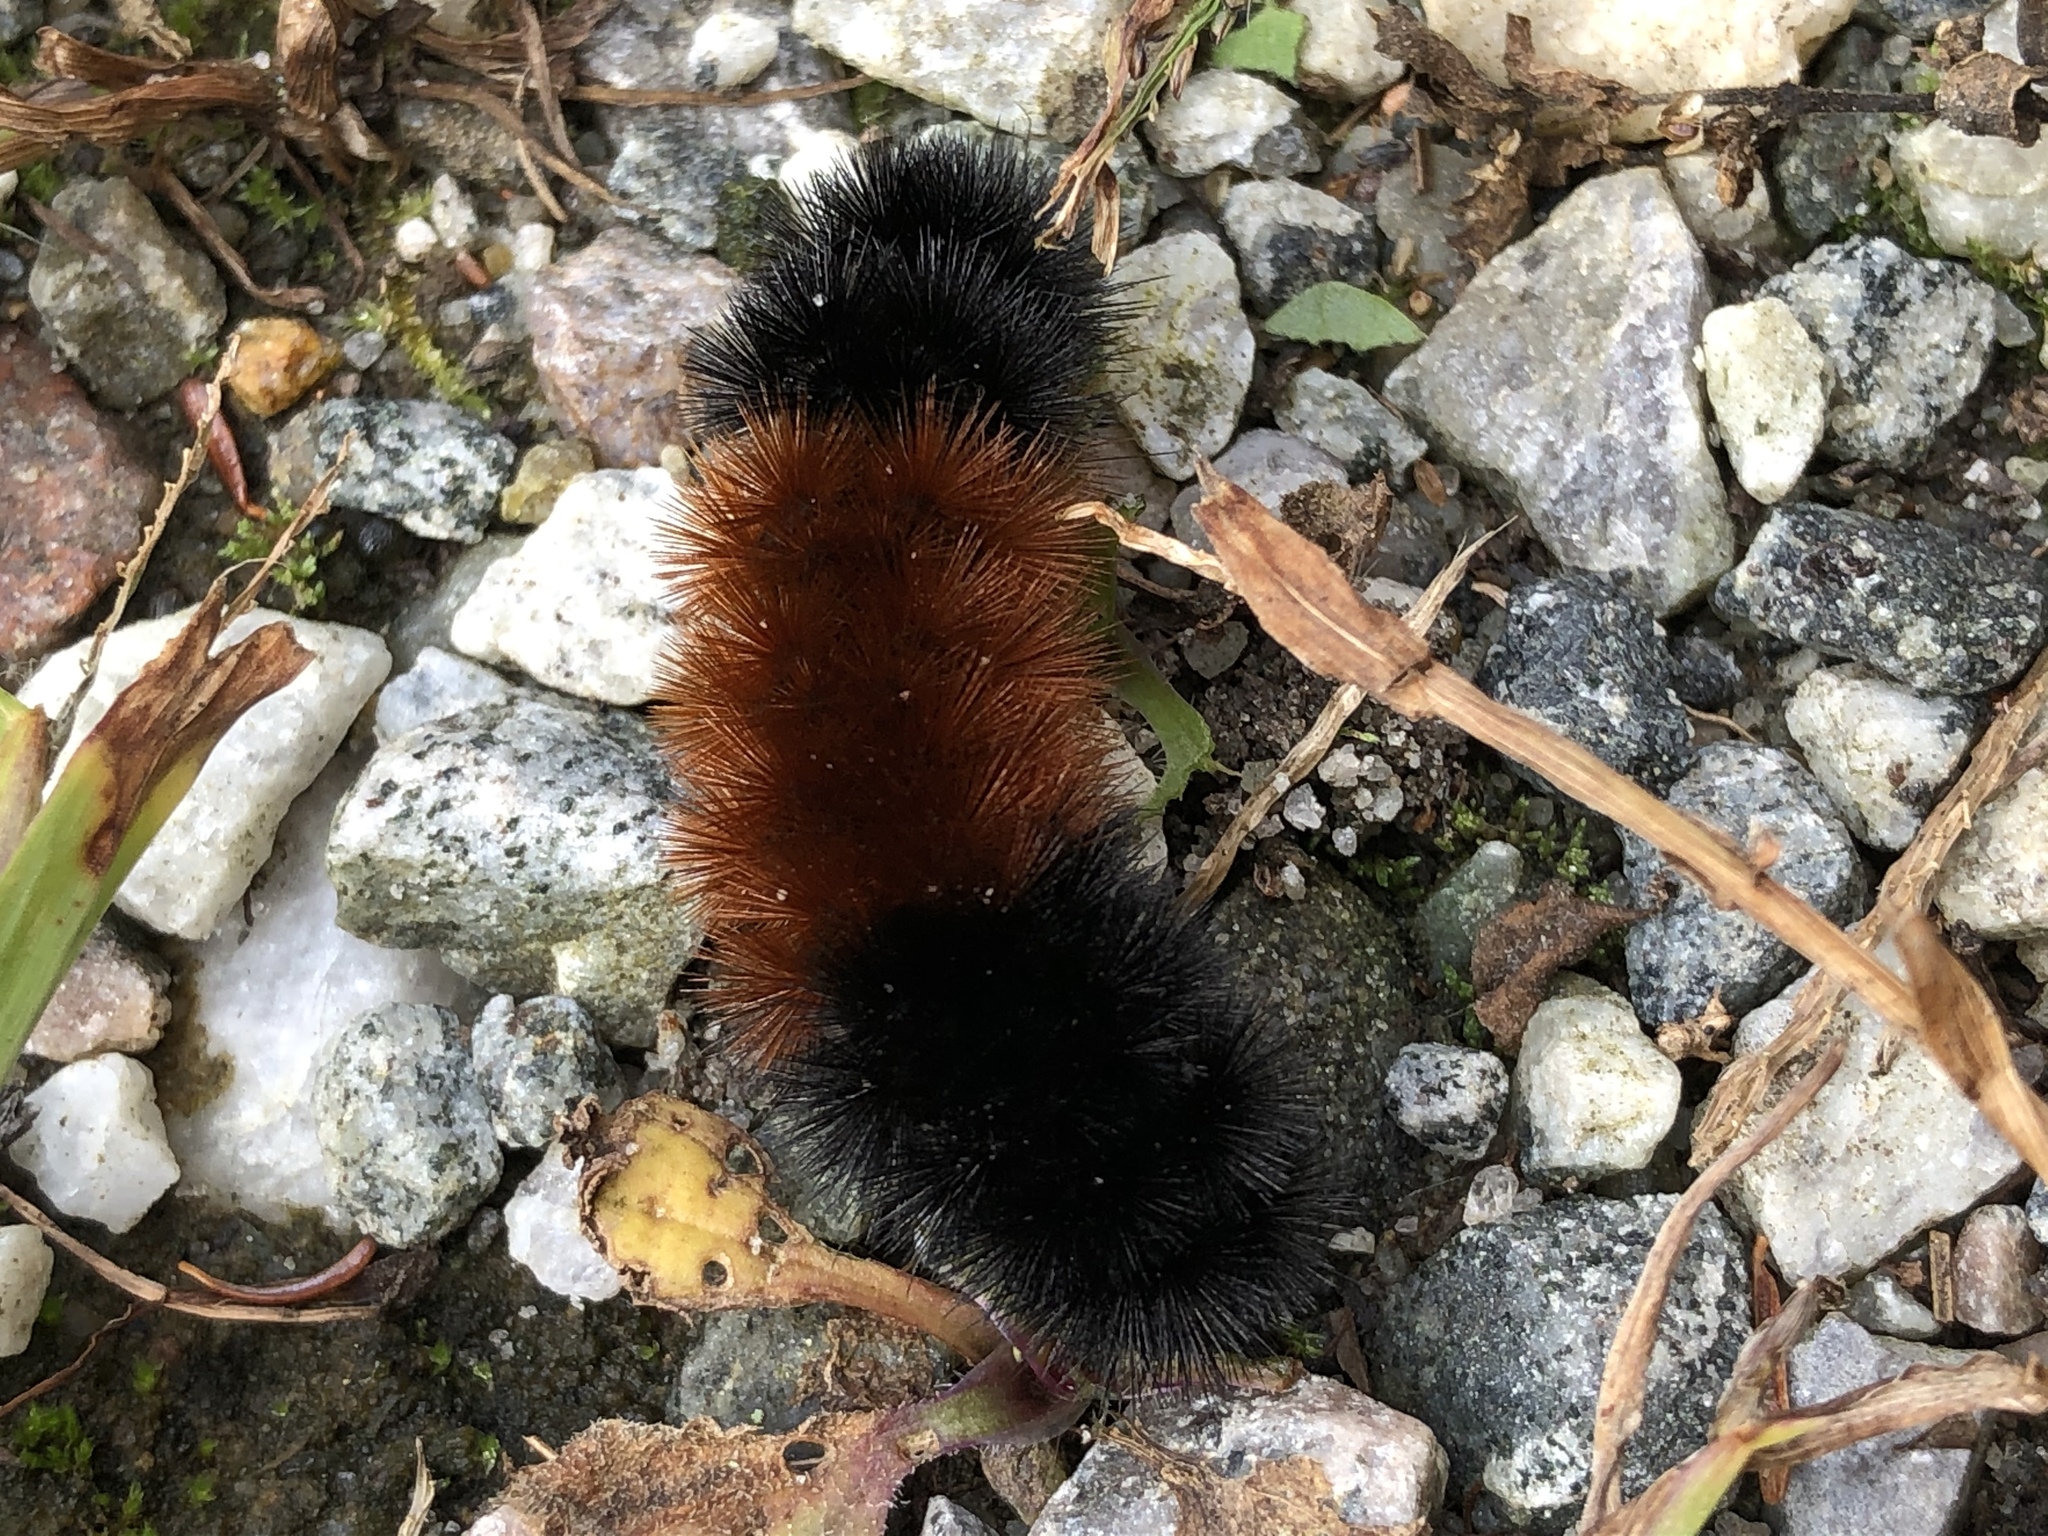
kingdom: Animalia
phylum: Arthropoda
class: Insecta
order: Lepidoptera
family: Erebidae
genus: Pyrrharctia
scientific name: Pyrrharctia isabella
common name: Isabella tiger moth
